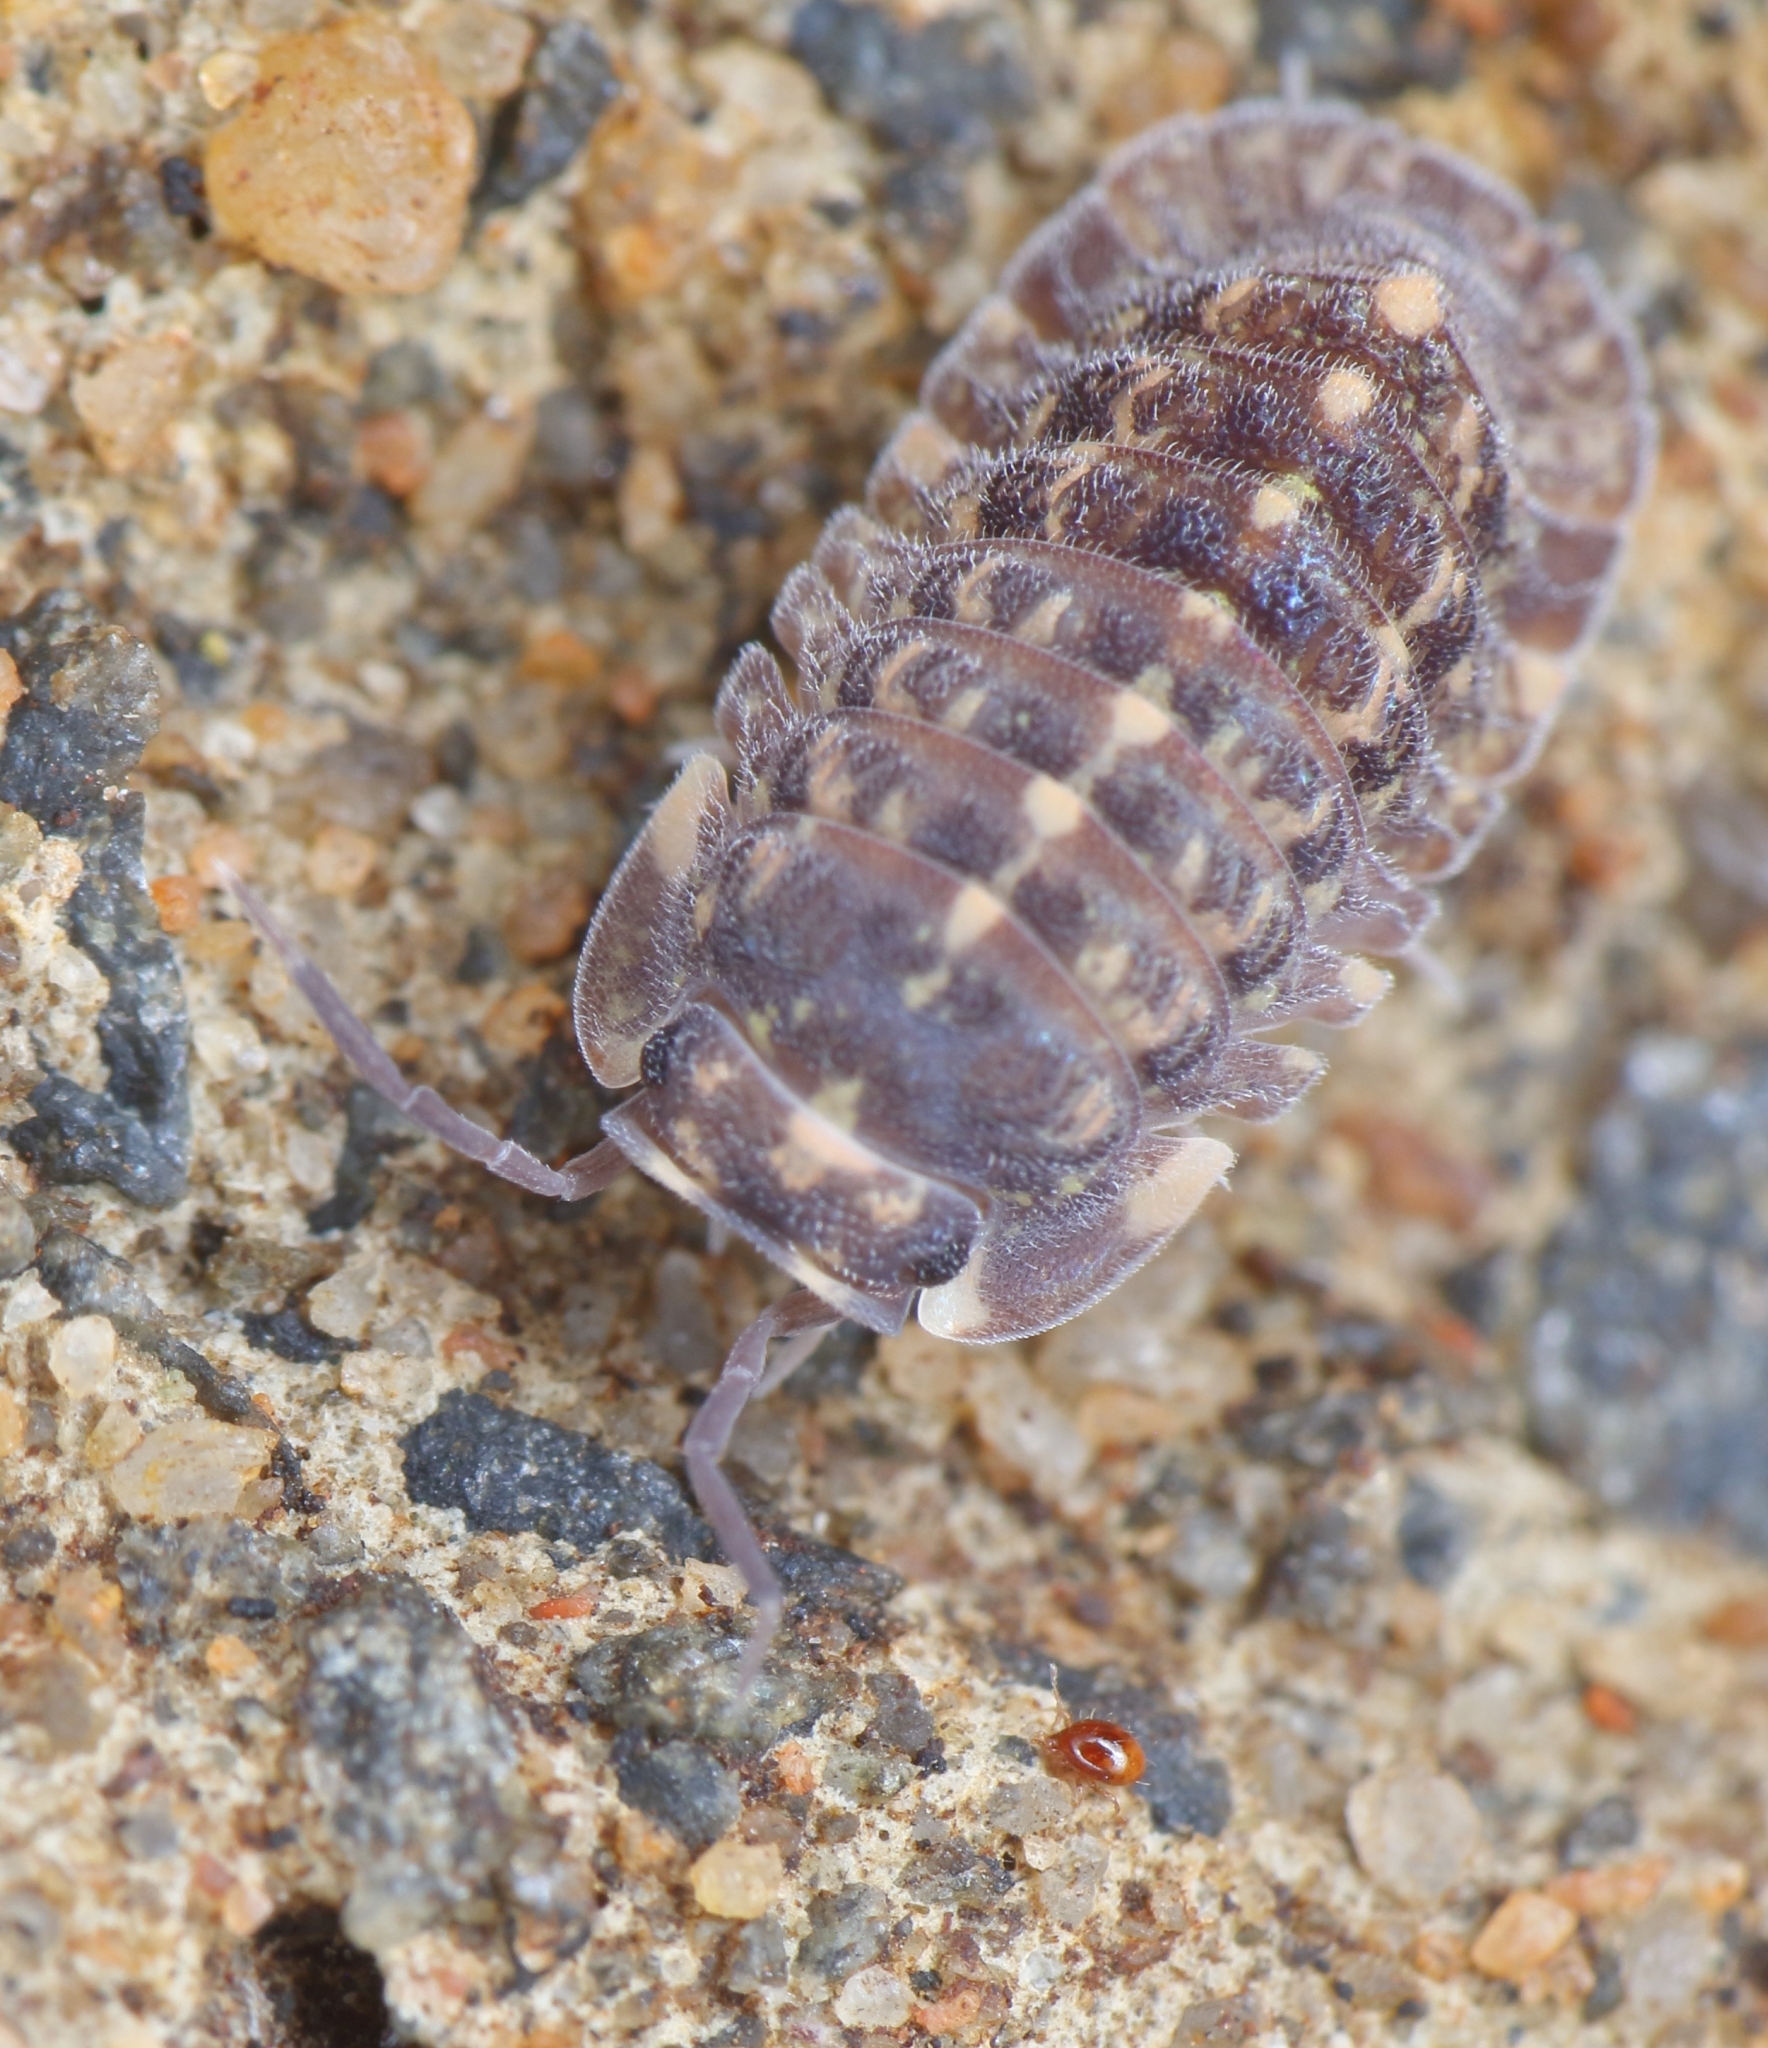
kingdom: Animalia
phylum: Arthropoda
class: Malacostraca
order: Isopoda
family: Armadillidae
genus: Barnardillo
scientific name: Barnardillo barnardi
